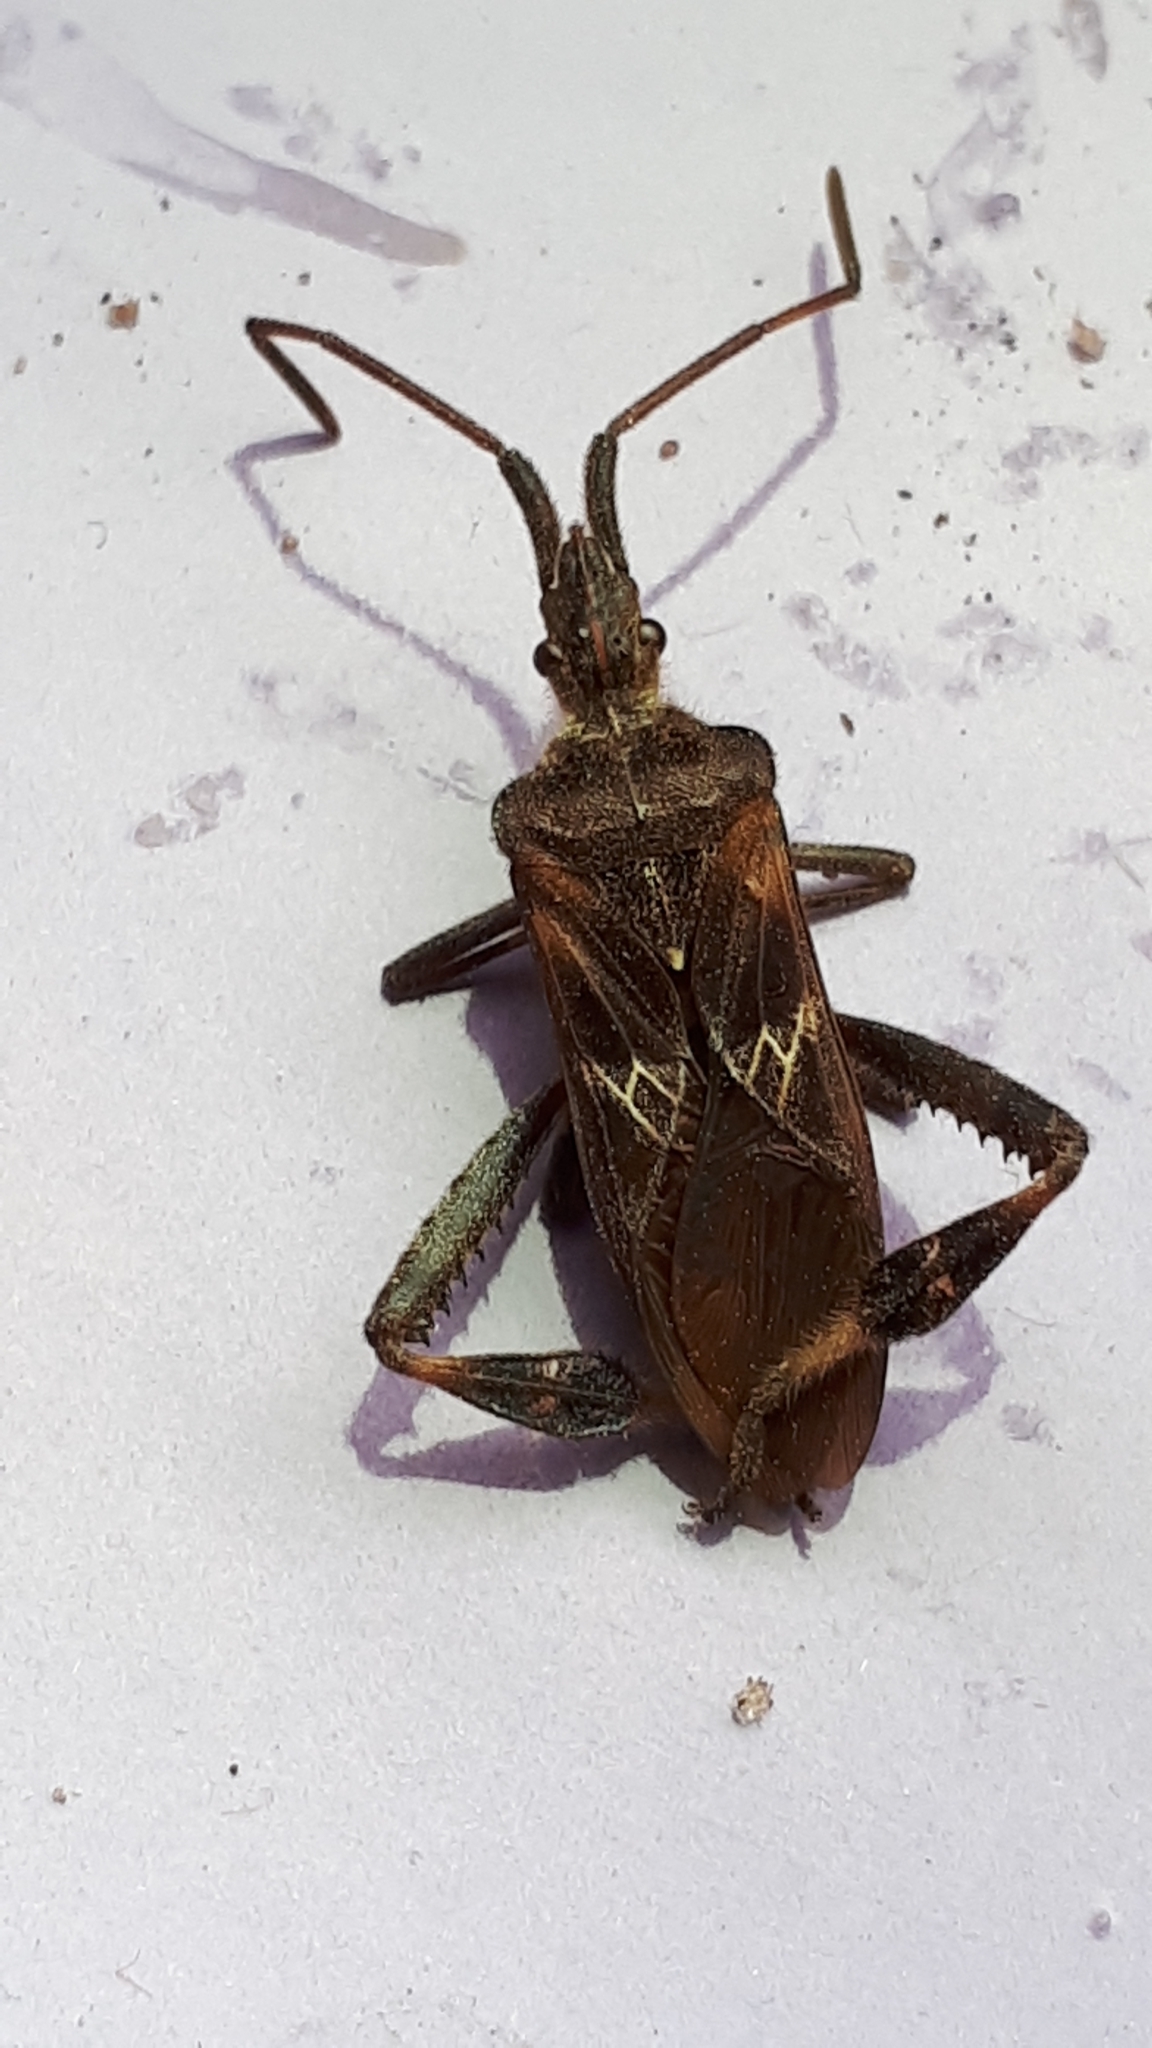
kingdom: Animalia
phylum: Arthropoda
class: Insecta
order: Hemiptera
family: Coreidae
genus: Leptoglossus
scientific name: Leptoglossus occidentalis
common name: Western conifer-seed bug
